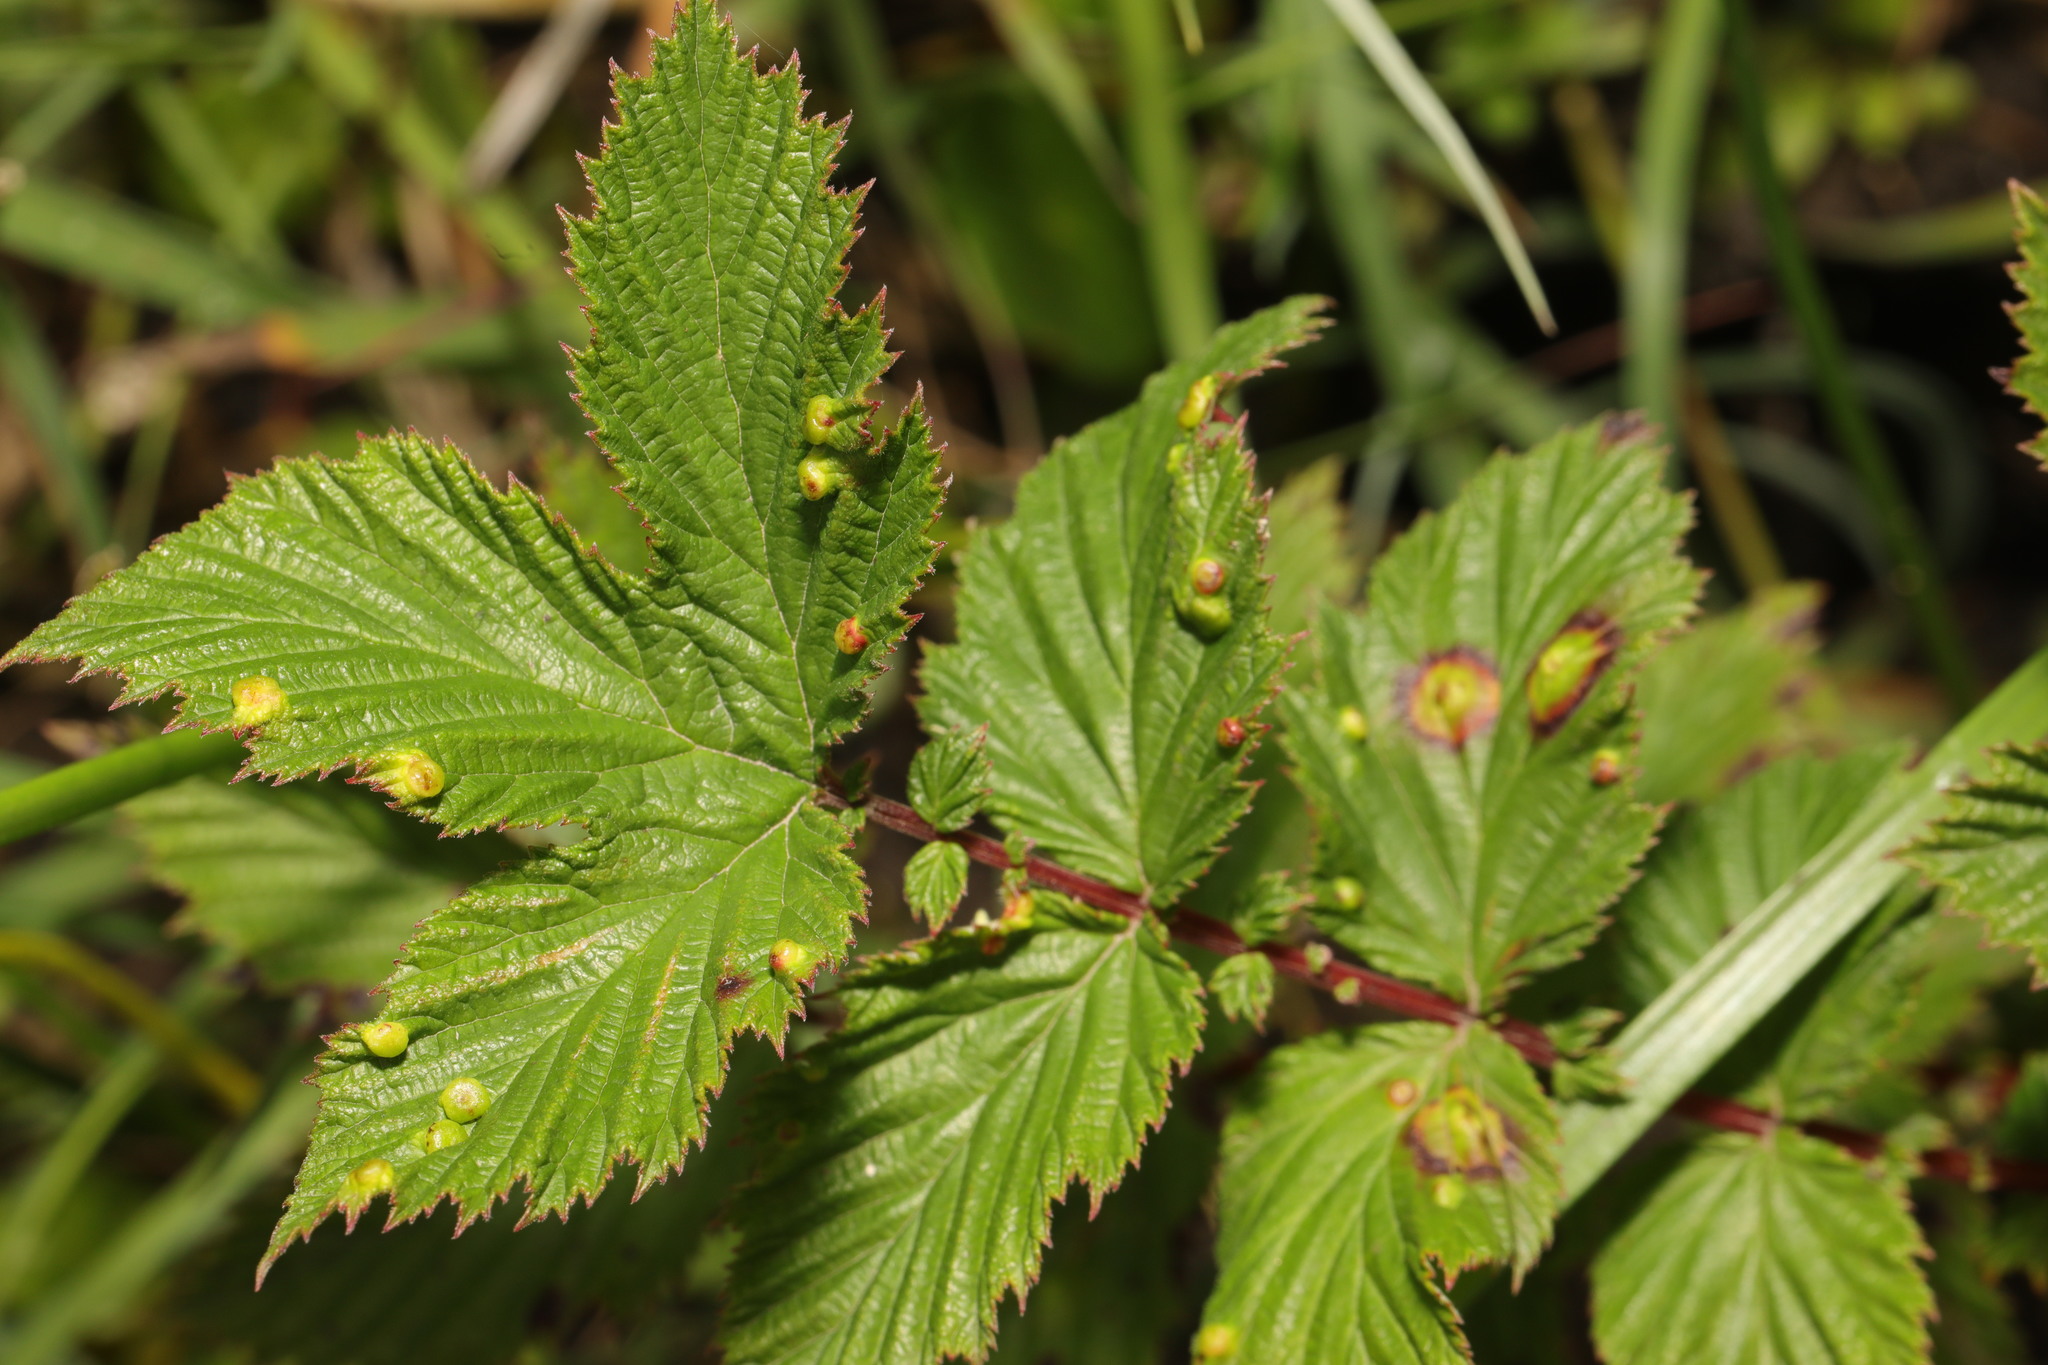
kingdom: Plantae
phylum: Tracheophyta
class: Magnoliopsida
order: Rosales
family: Rosaceae
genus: Filipendula
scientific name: Filipendula ulmaria
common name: Meadowsweet
